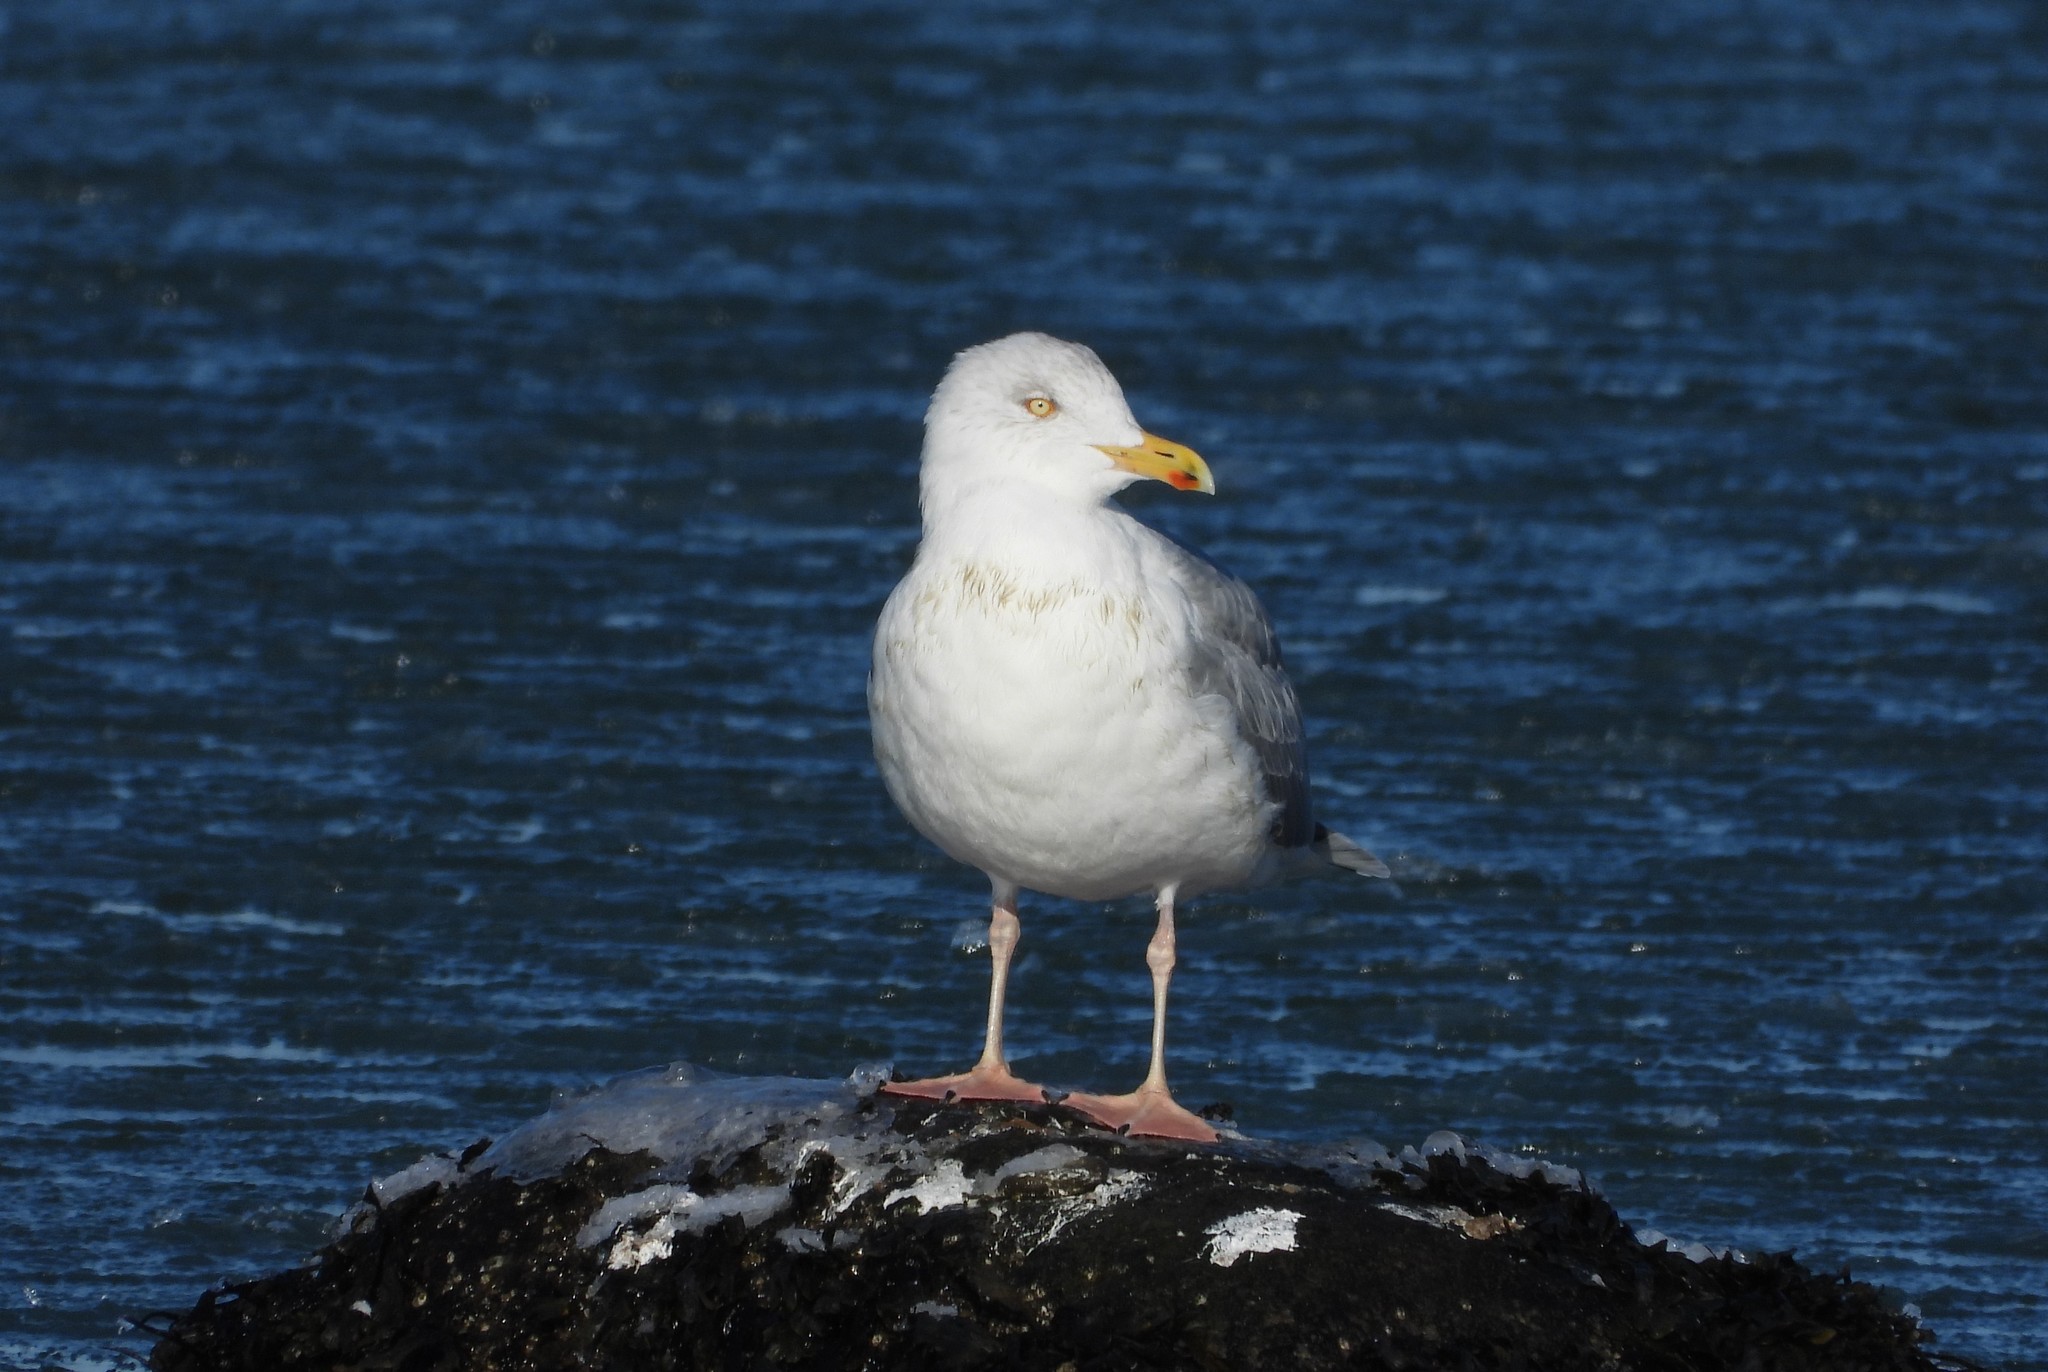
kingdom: Animalia
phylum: Chordata
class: Aves
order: Charadriiformes
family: Laridae
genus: Larus
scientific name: Larus argentatus
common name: Herring gull
